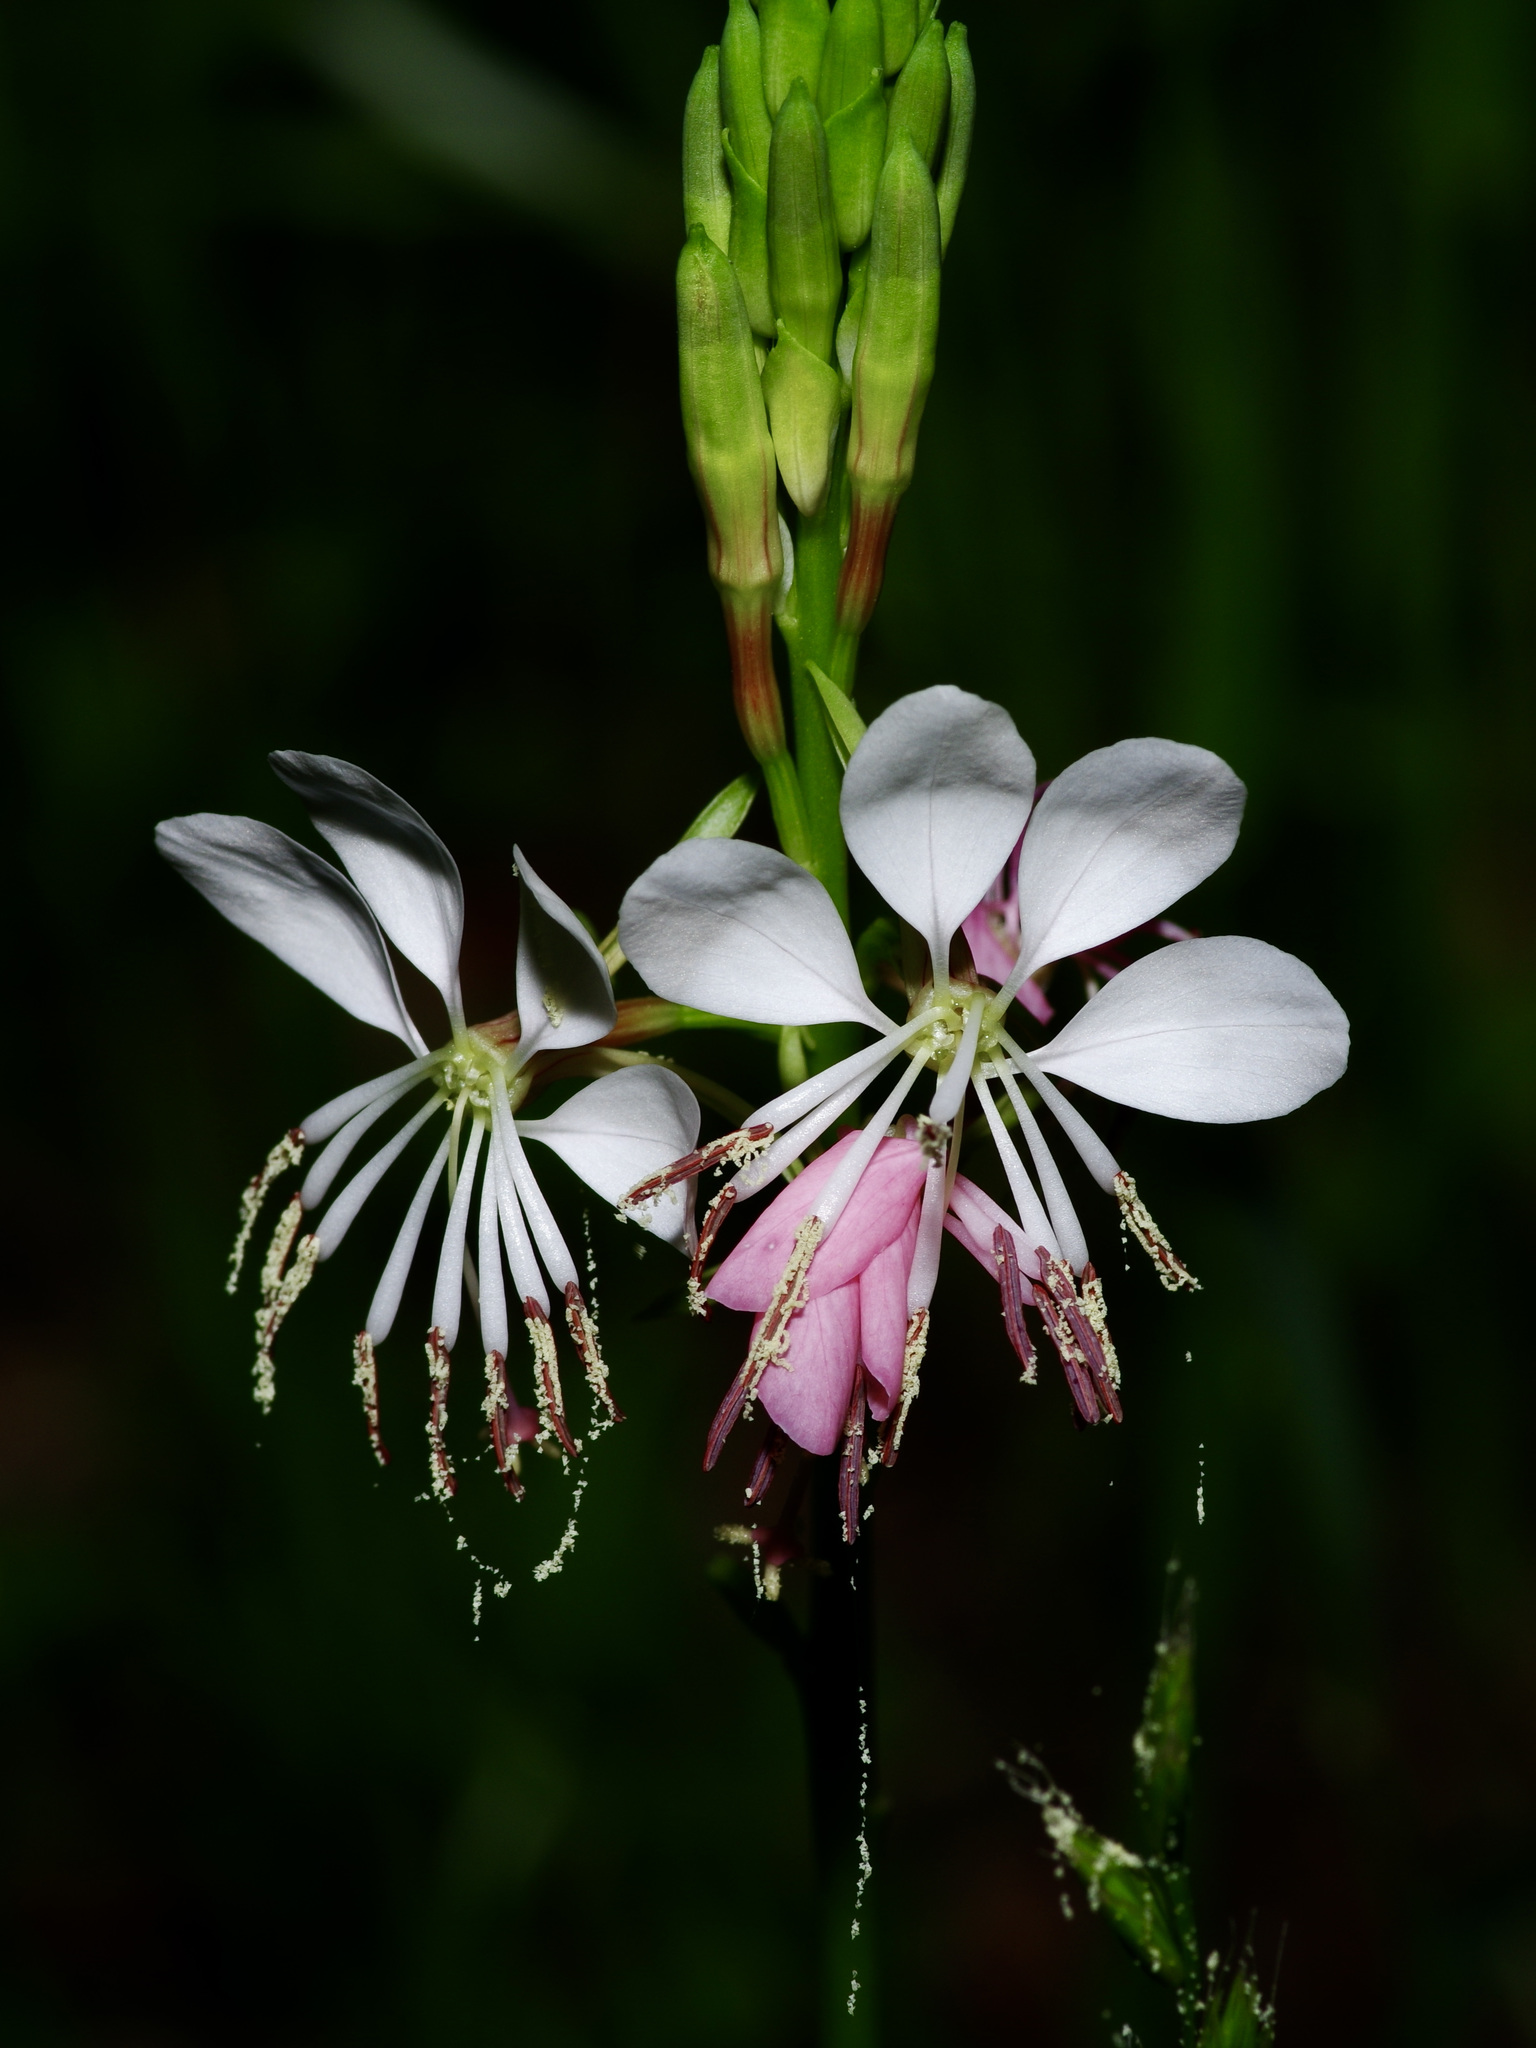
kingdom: Plantae
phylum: Tracheophyta
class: Magnoliopsida
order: Myrtales
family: Onagraceae
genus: Oenothera
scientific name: Oenothera suffulta
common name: Kisses
